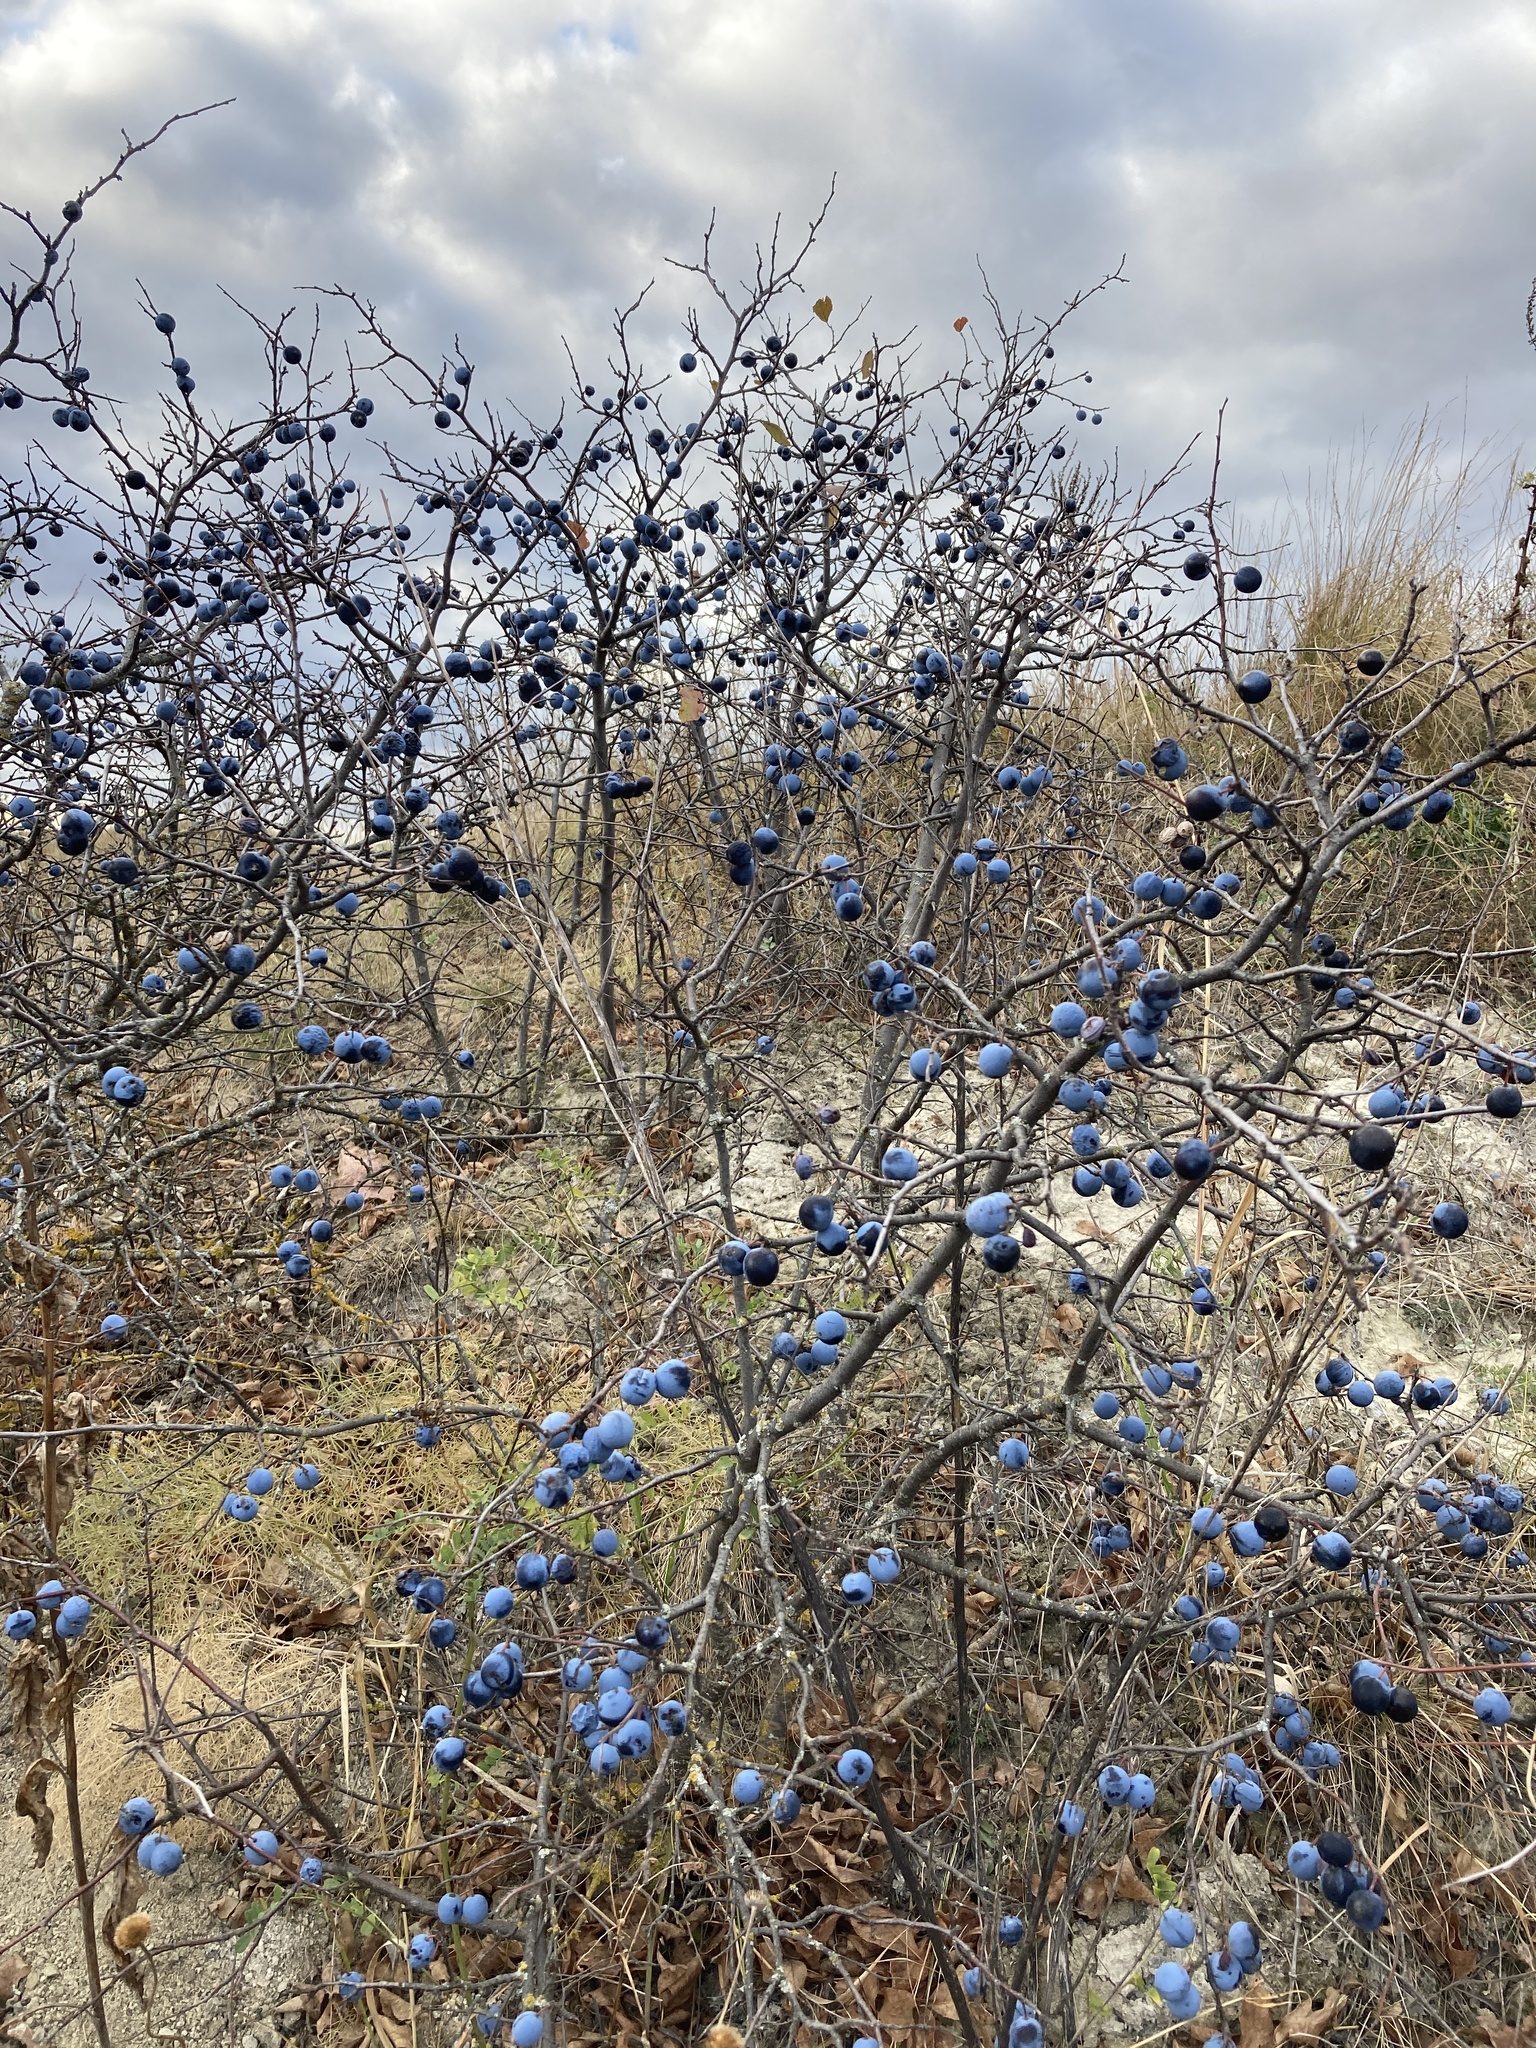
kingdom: Plantae
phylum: Tracheophyta
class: Magnoliopsida
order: Rosales
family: Rosaceae
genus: Prunus
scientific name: Prunus spinosa
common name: Blackthorn
